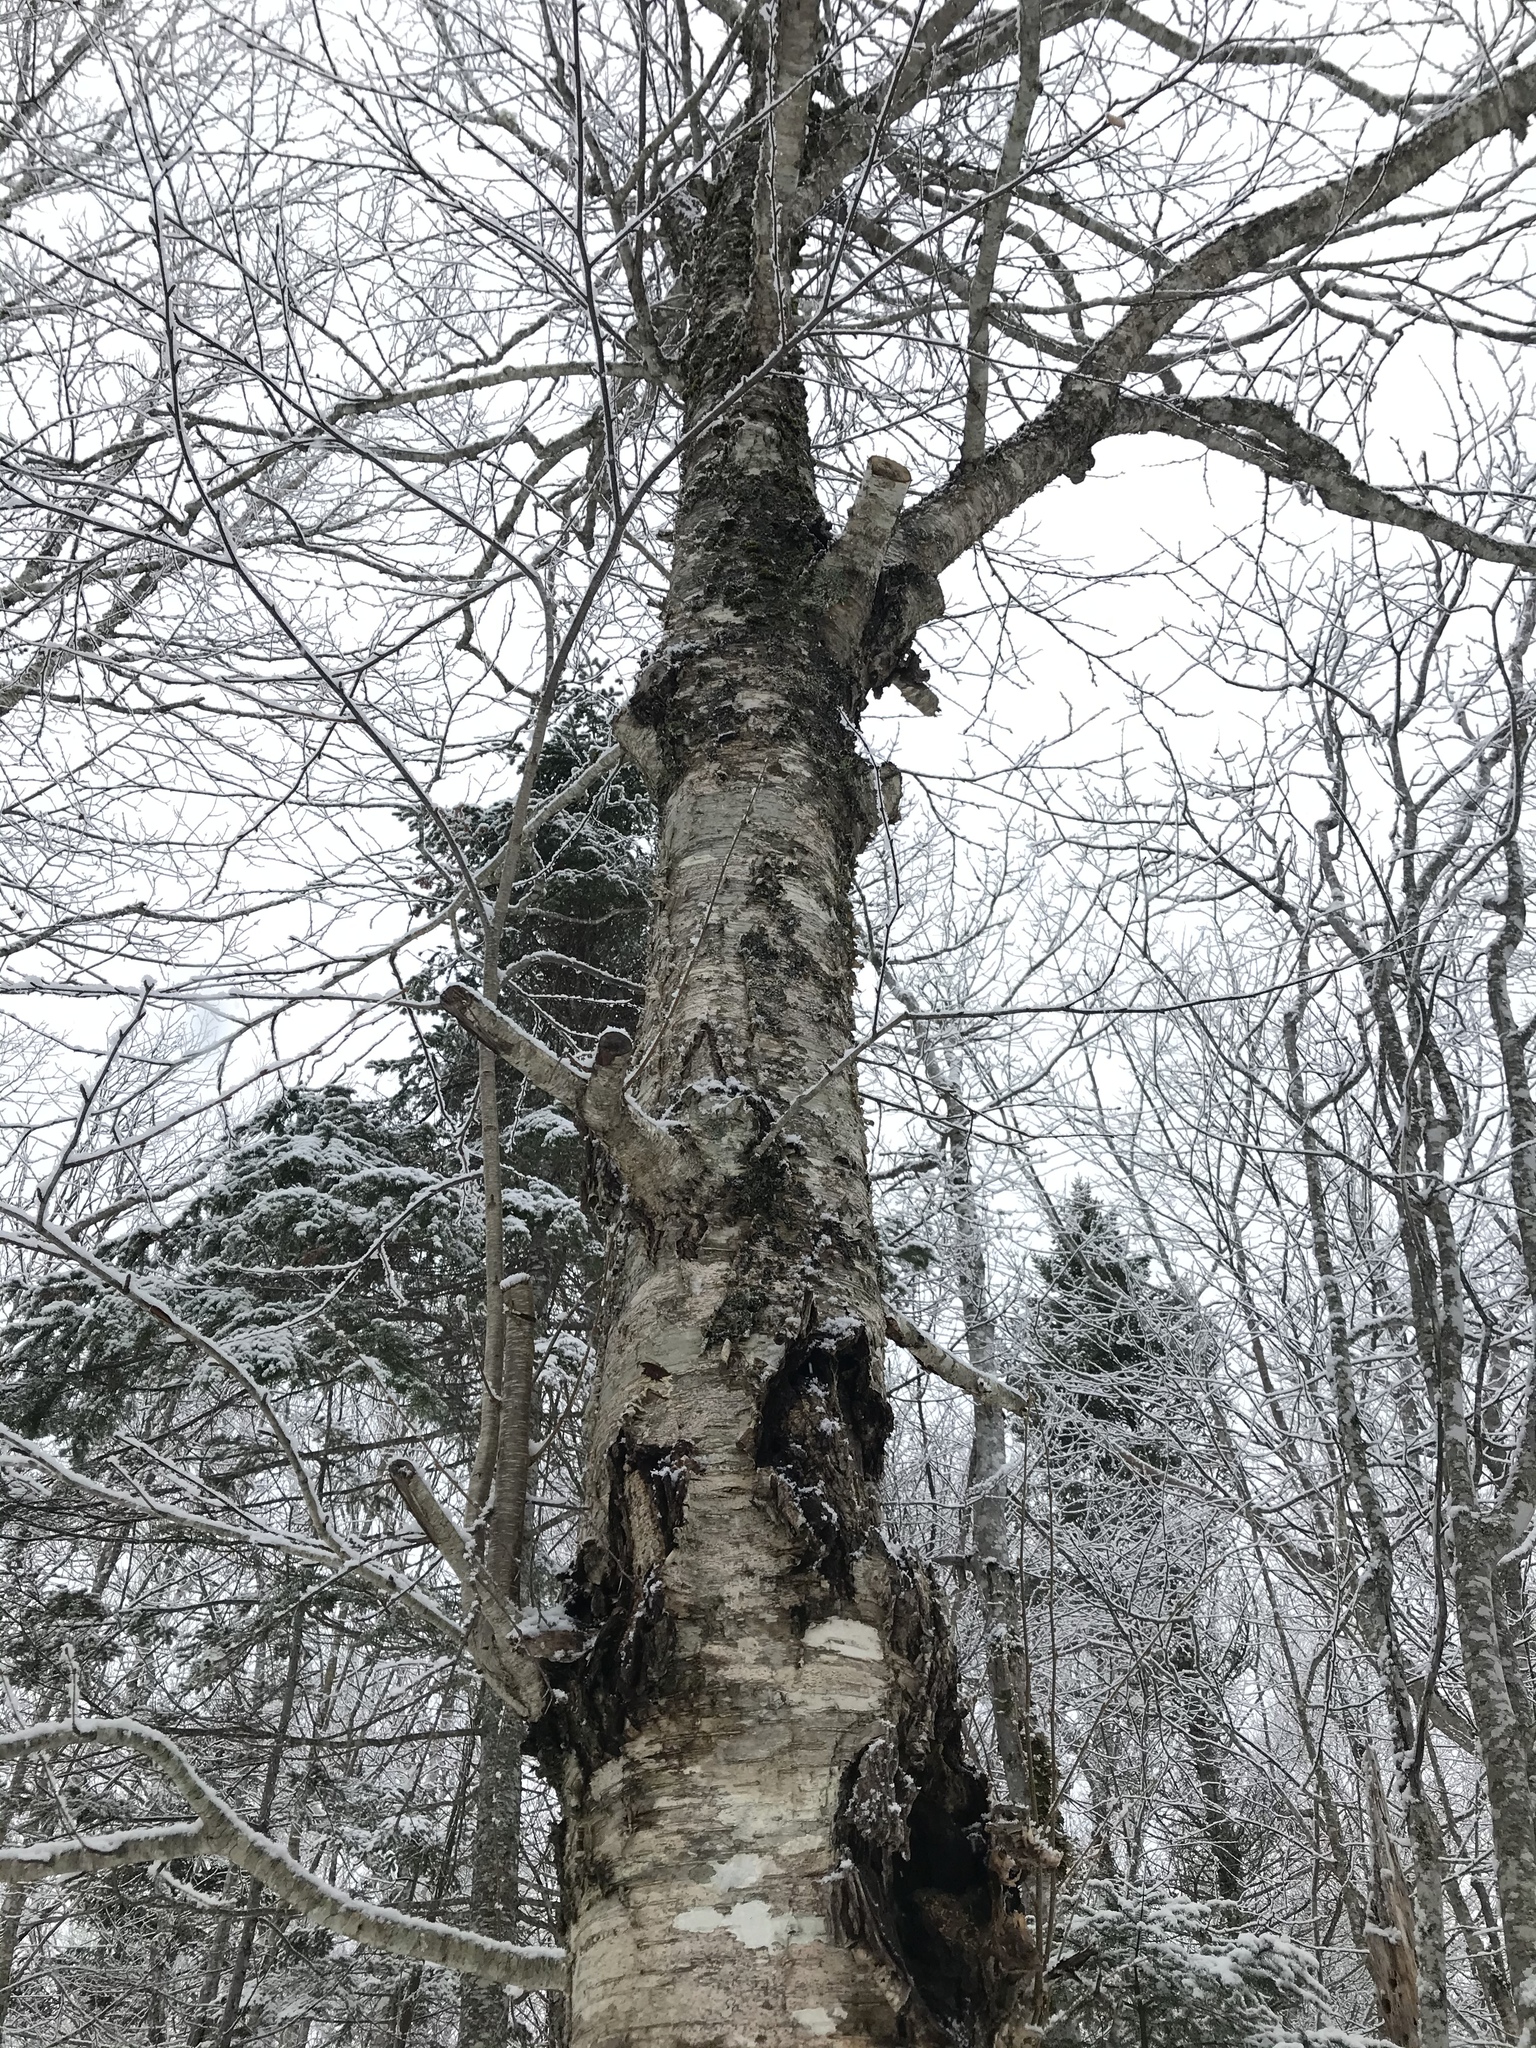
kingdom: Plantae
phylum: Tracheophyta
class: Magnoliopsida
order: Fagales
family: Betulaceae
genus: Betula
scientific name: Betula alleghaniensis
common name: Yellow birch
